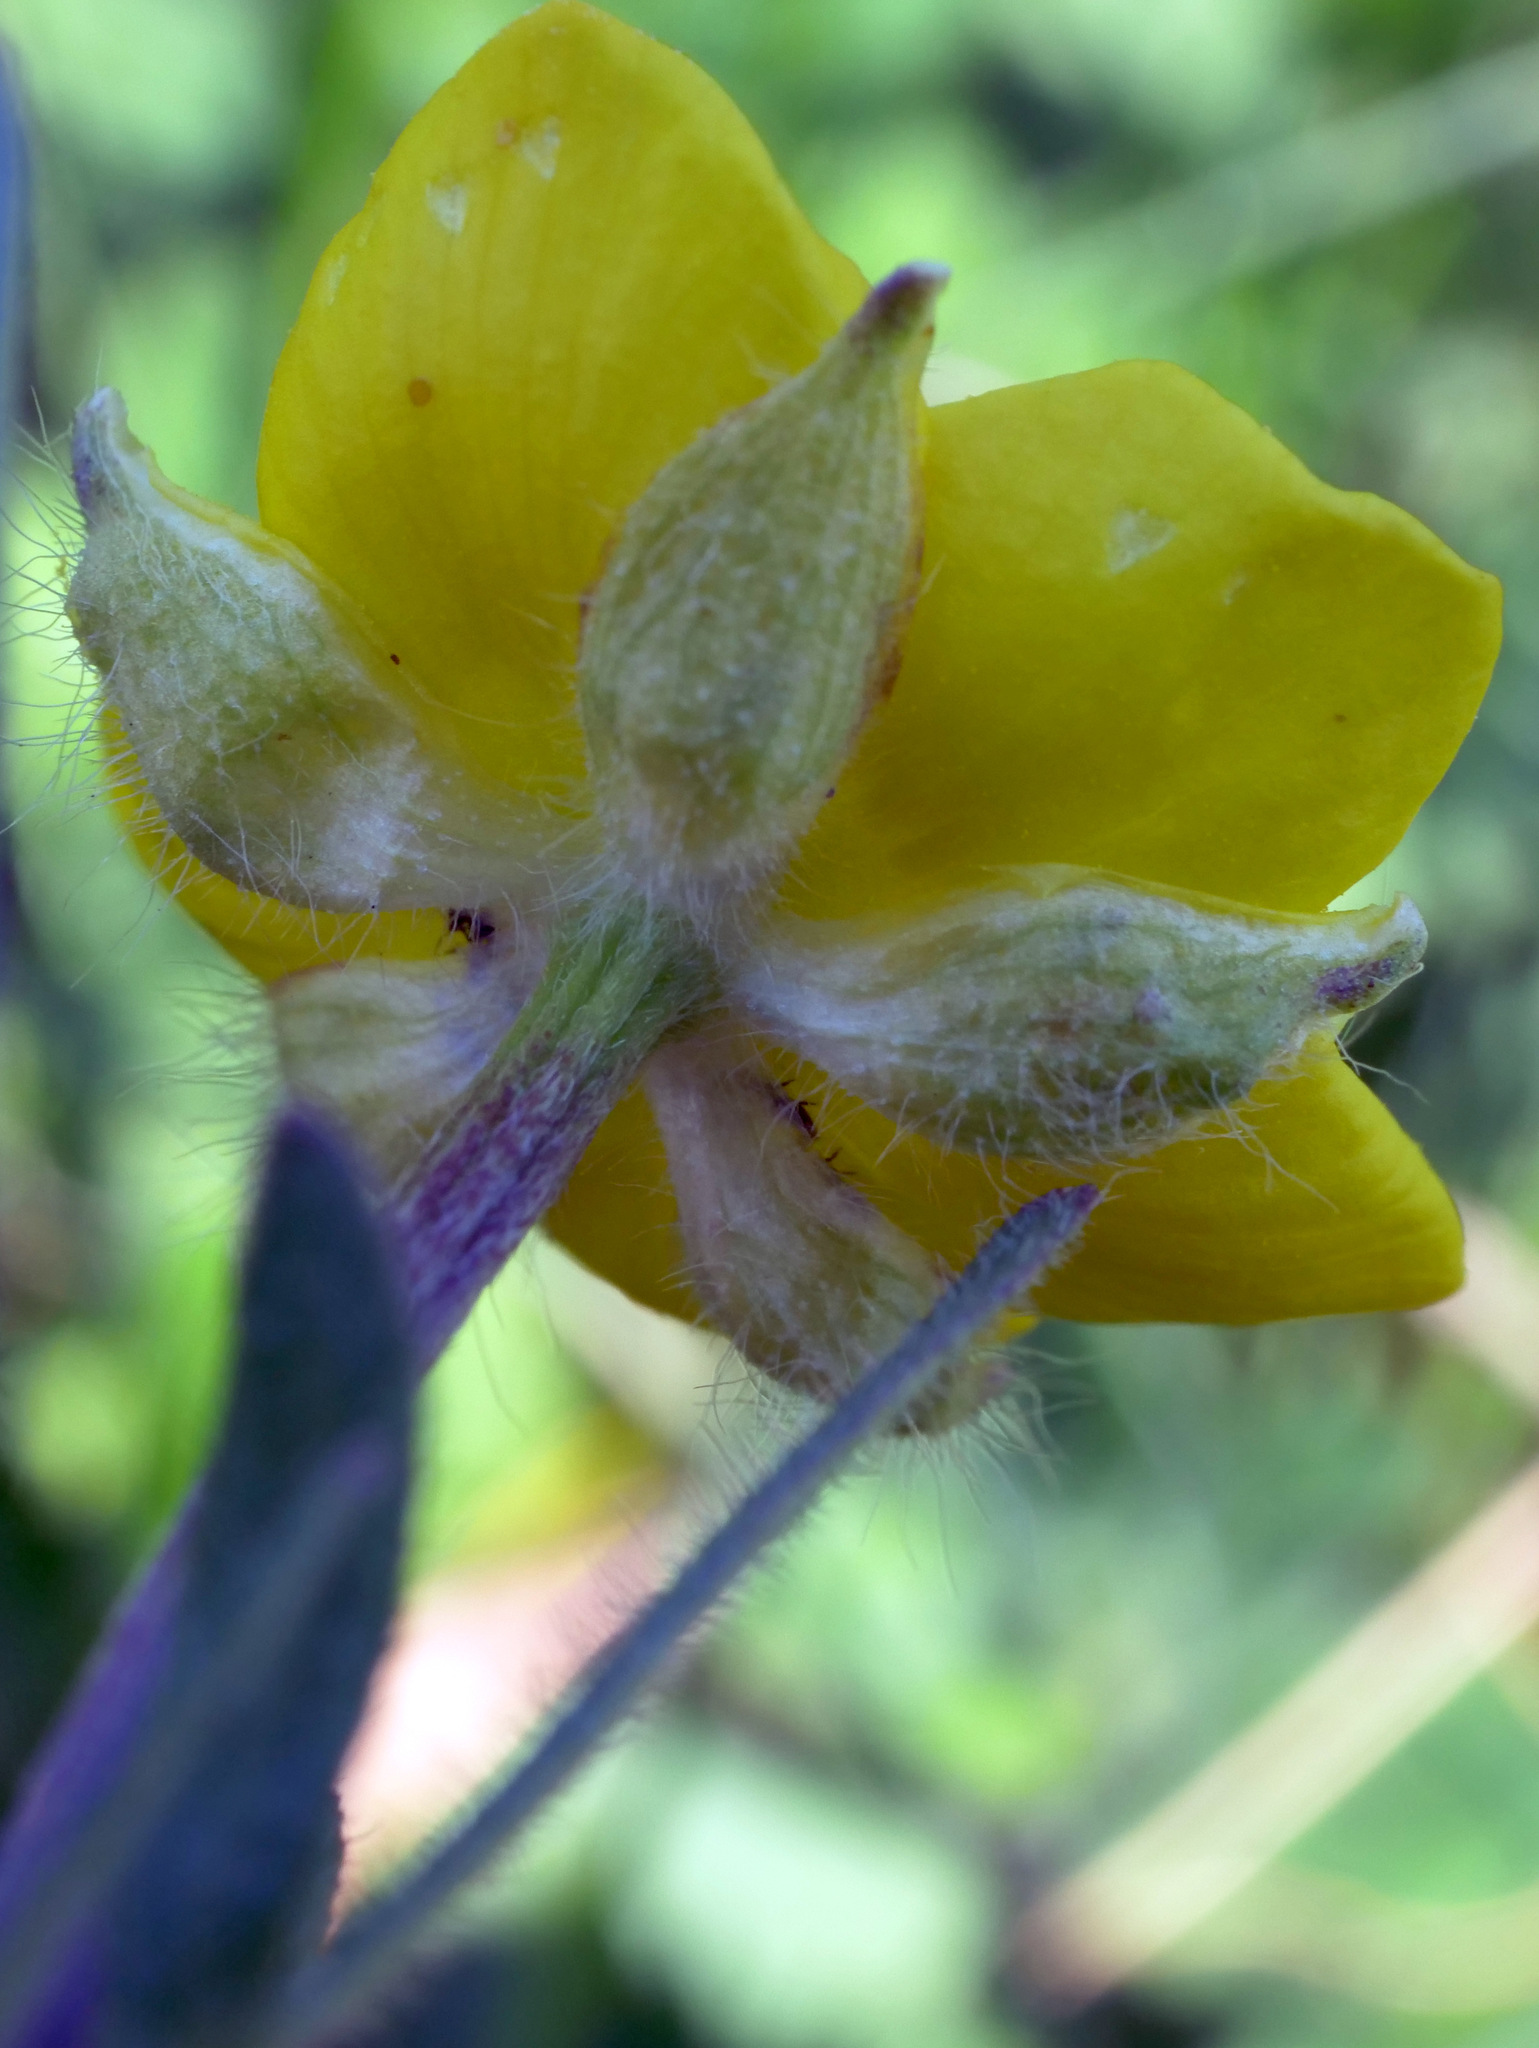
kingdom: Plantae
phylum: Tracheophyta
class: Magnoliopsida
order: Ranunculales
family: Ranunculaceae
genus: Ranunculus
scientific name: Ranunculus repens
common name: Creeping buttercup
